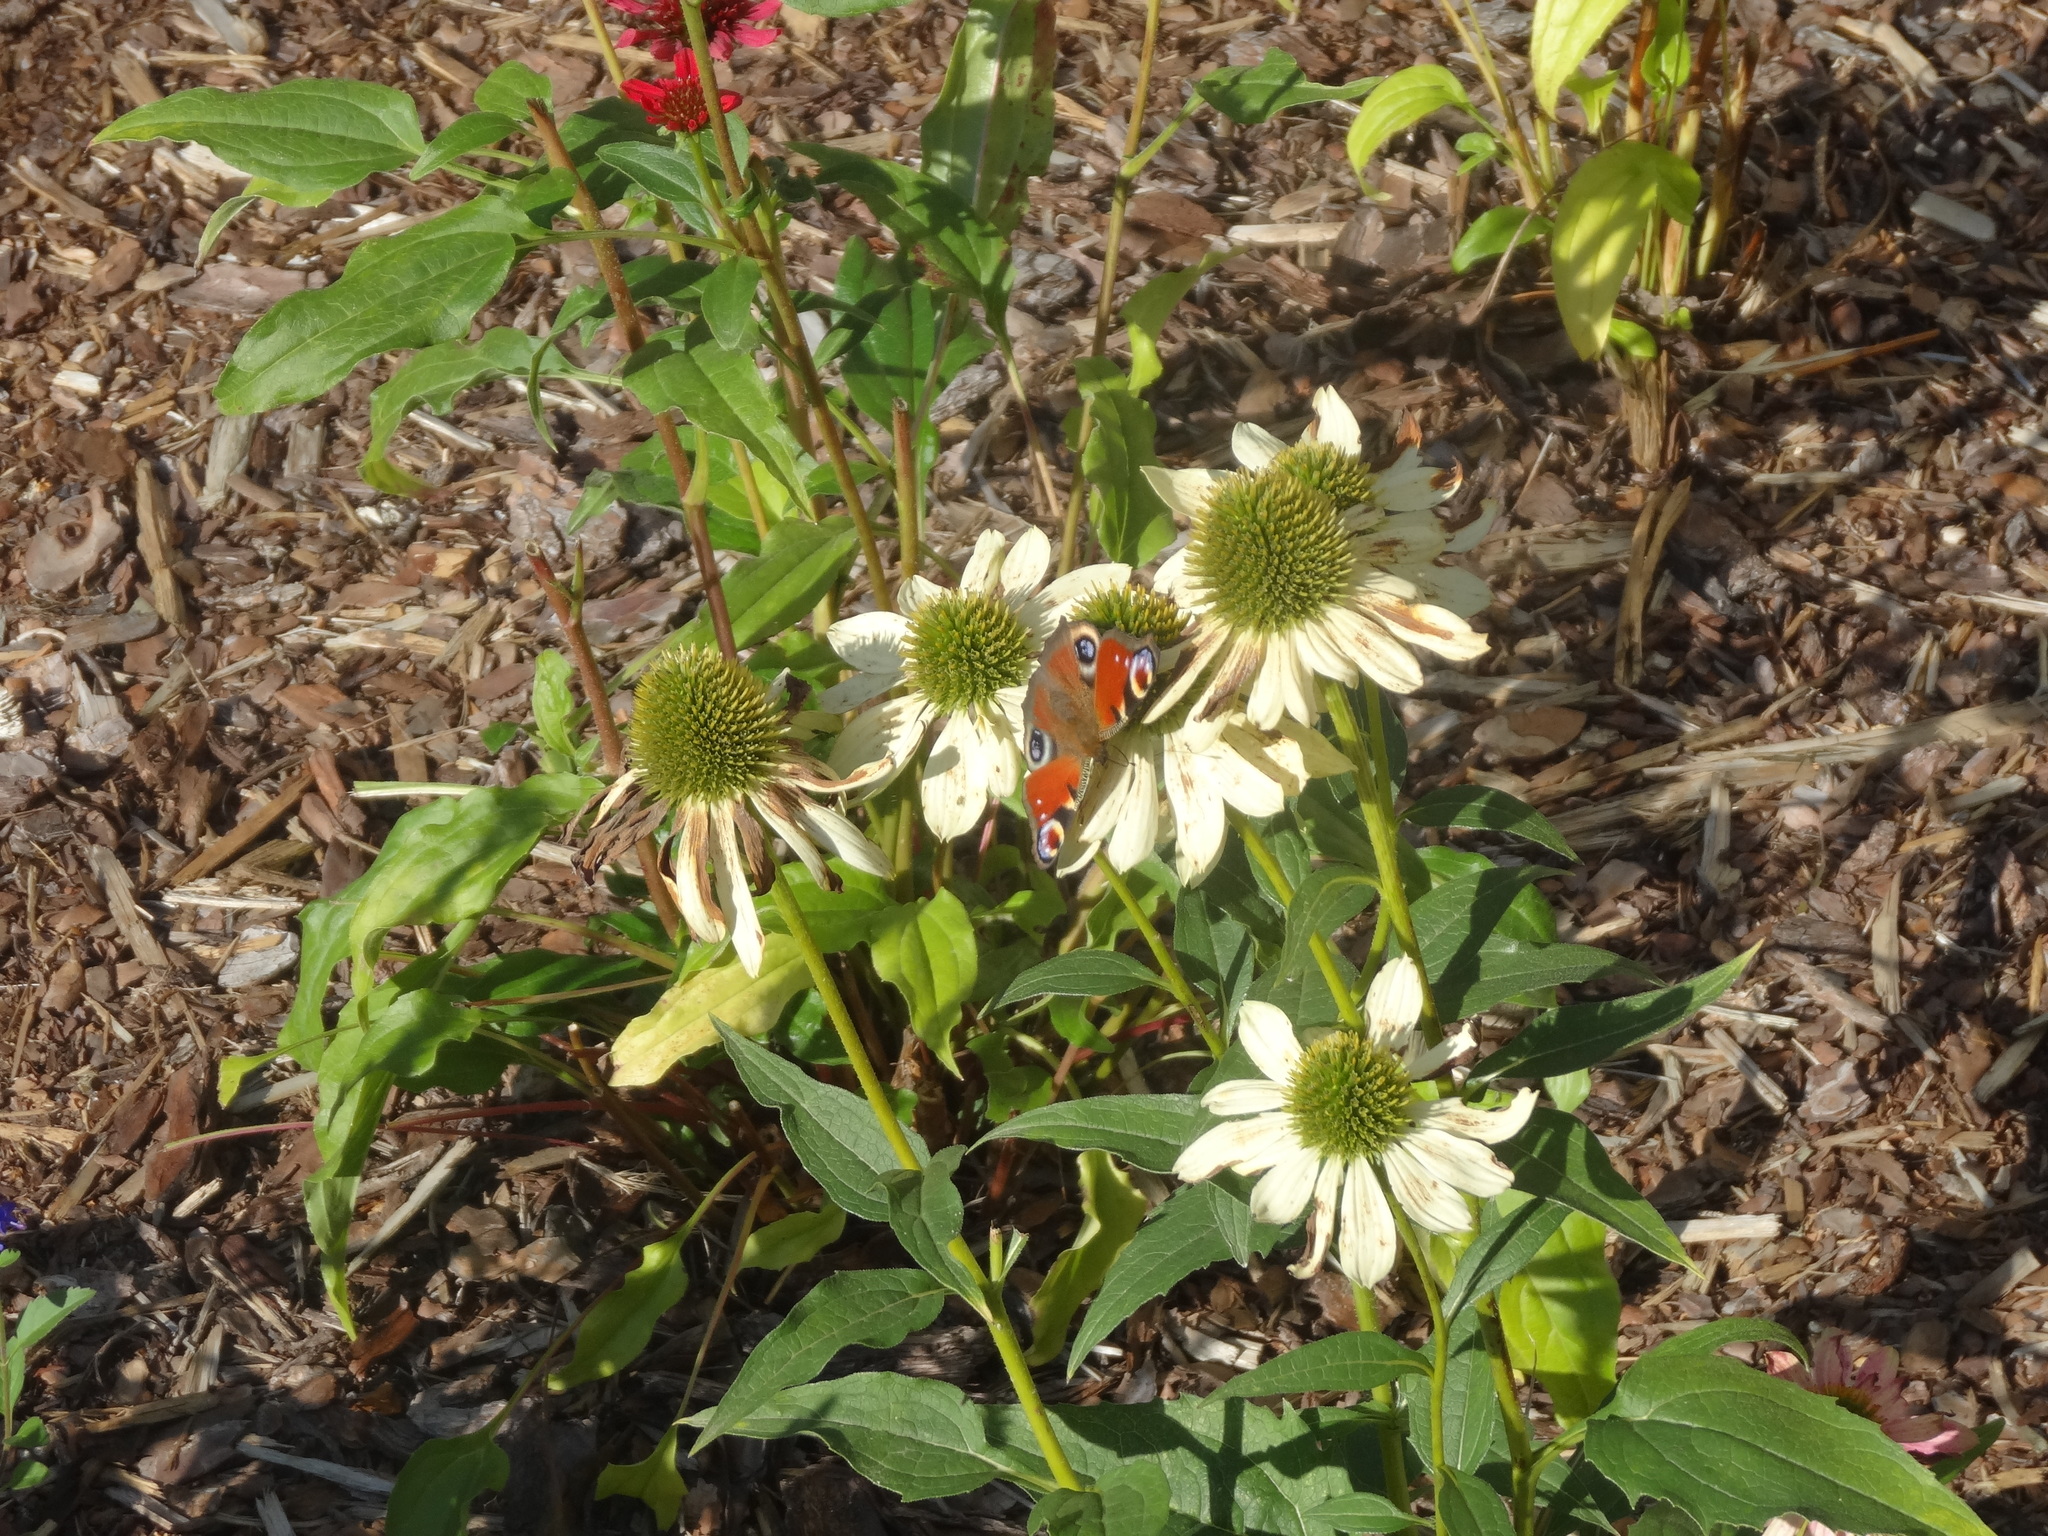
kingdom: Animalia
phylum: Arthropoda
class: Insecta
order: Lepidoptera
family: Nymphalidae
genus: Aglais
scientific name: Aglais io
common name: Peacock
